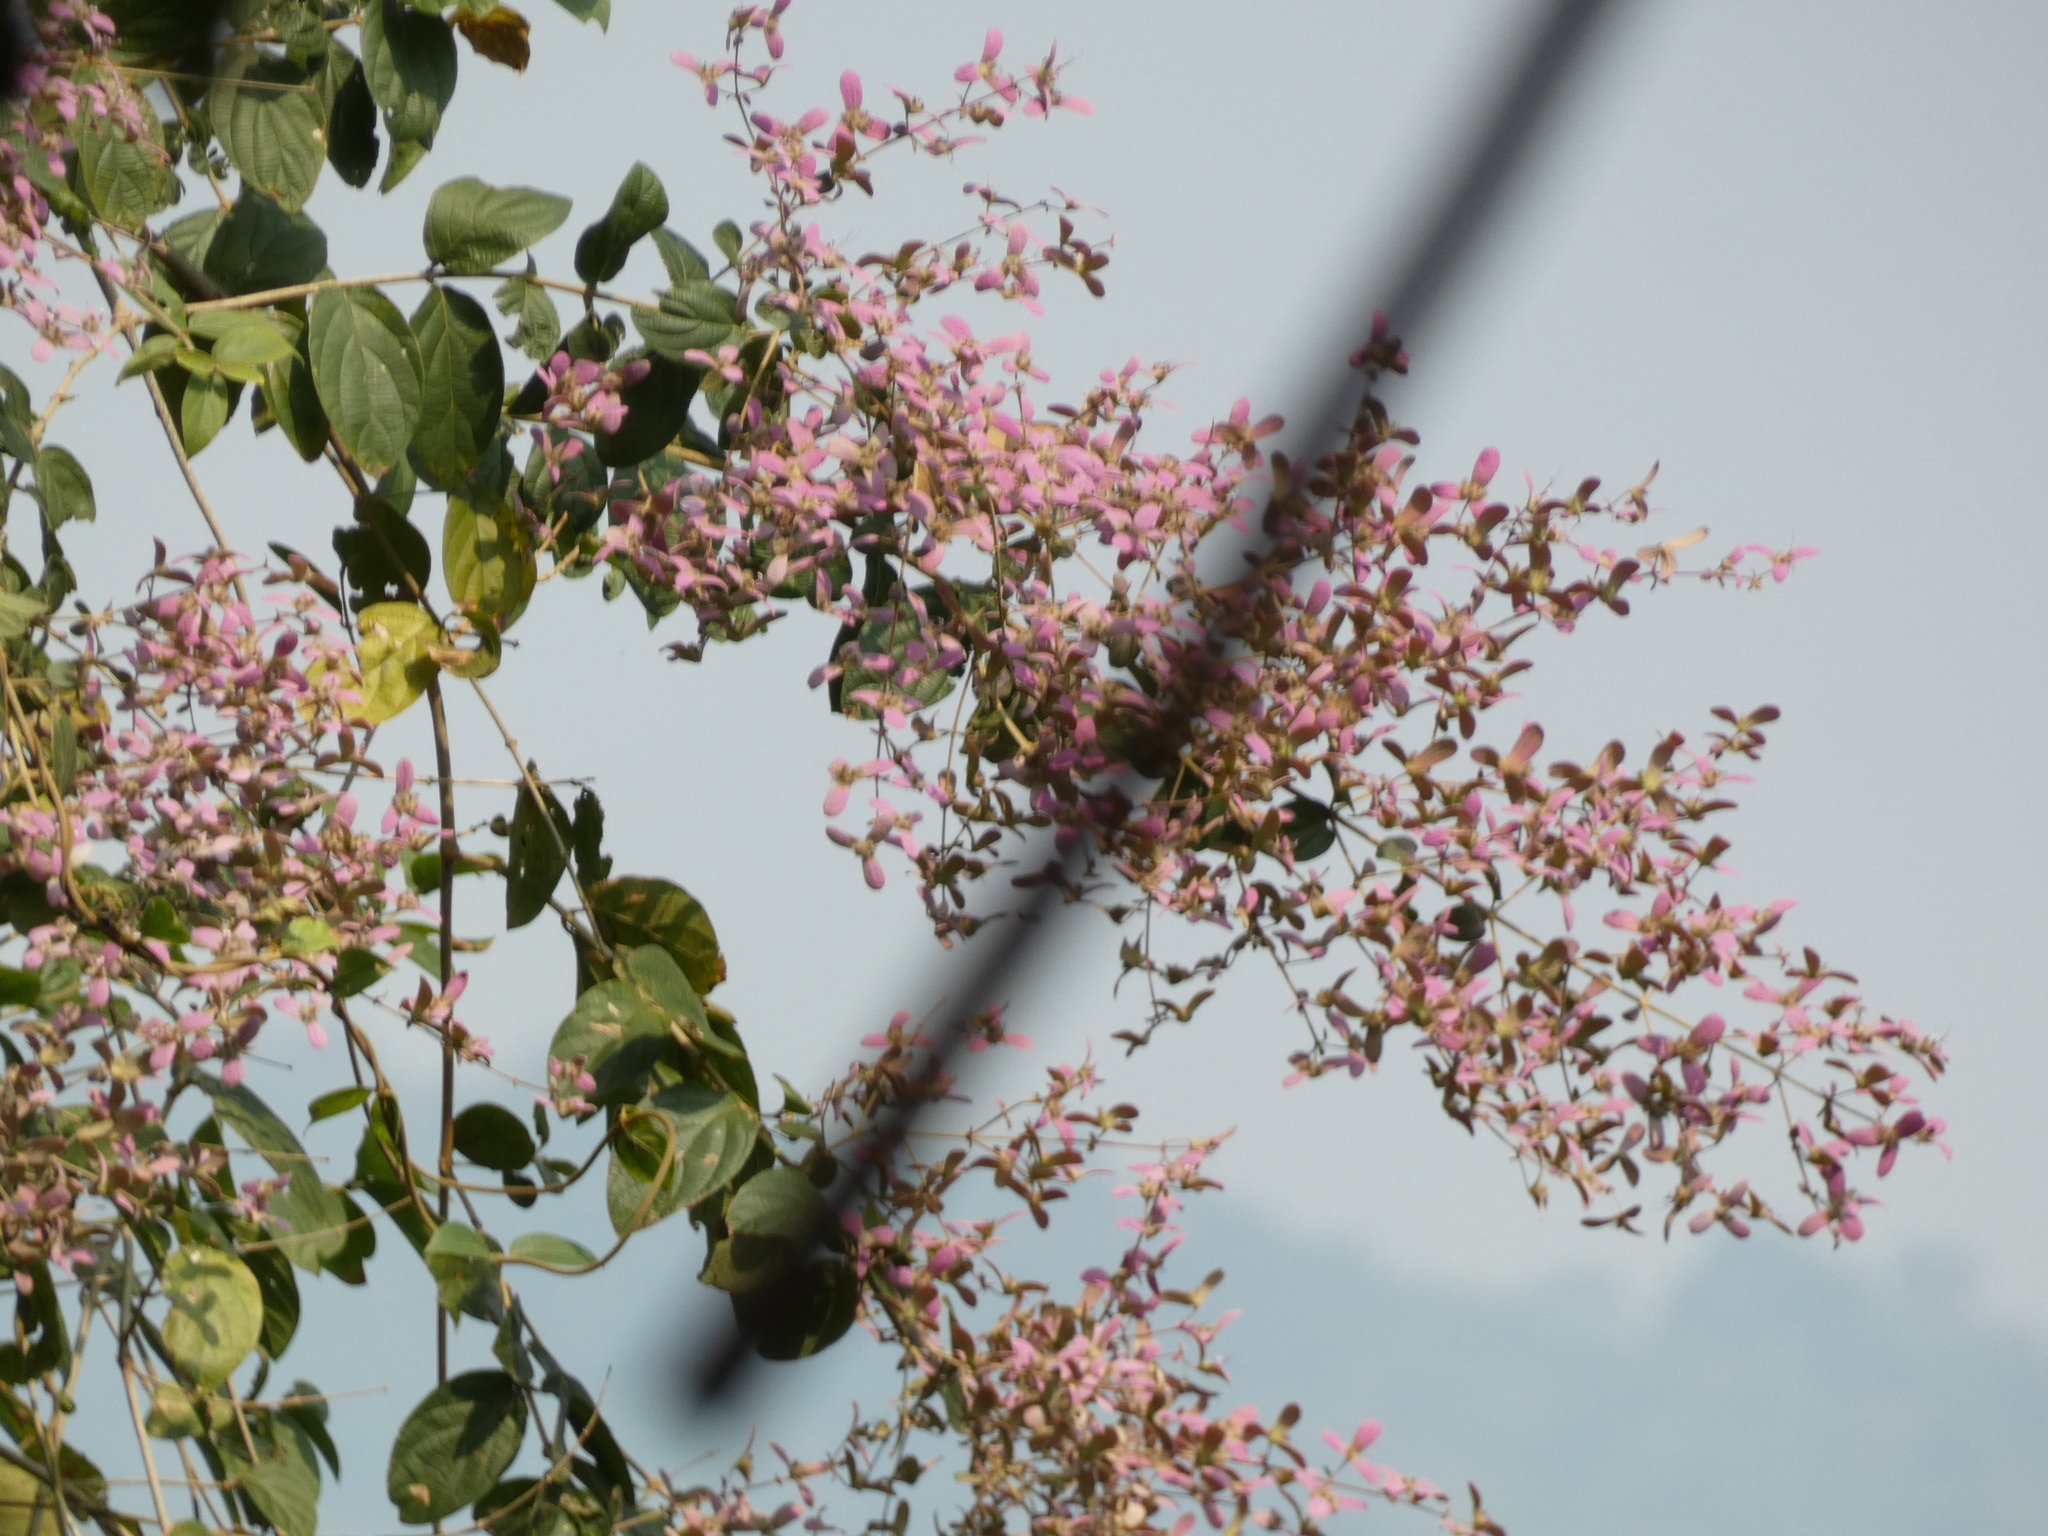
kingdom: Plantae
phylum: Tracheophyta
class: Magnoliopsida
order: Lamiales
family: Lamiaceae
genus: Congea
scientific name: Congea tomentosa
